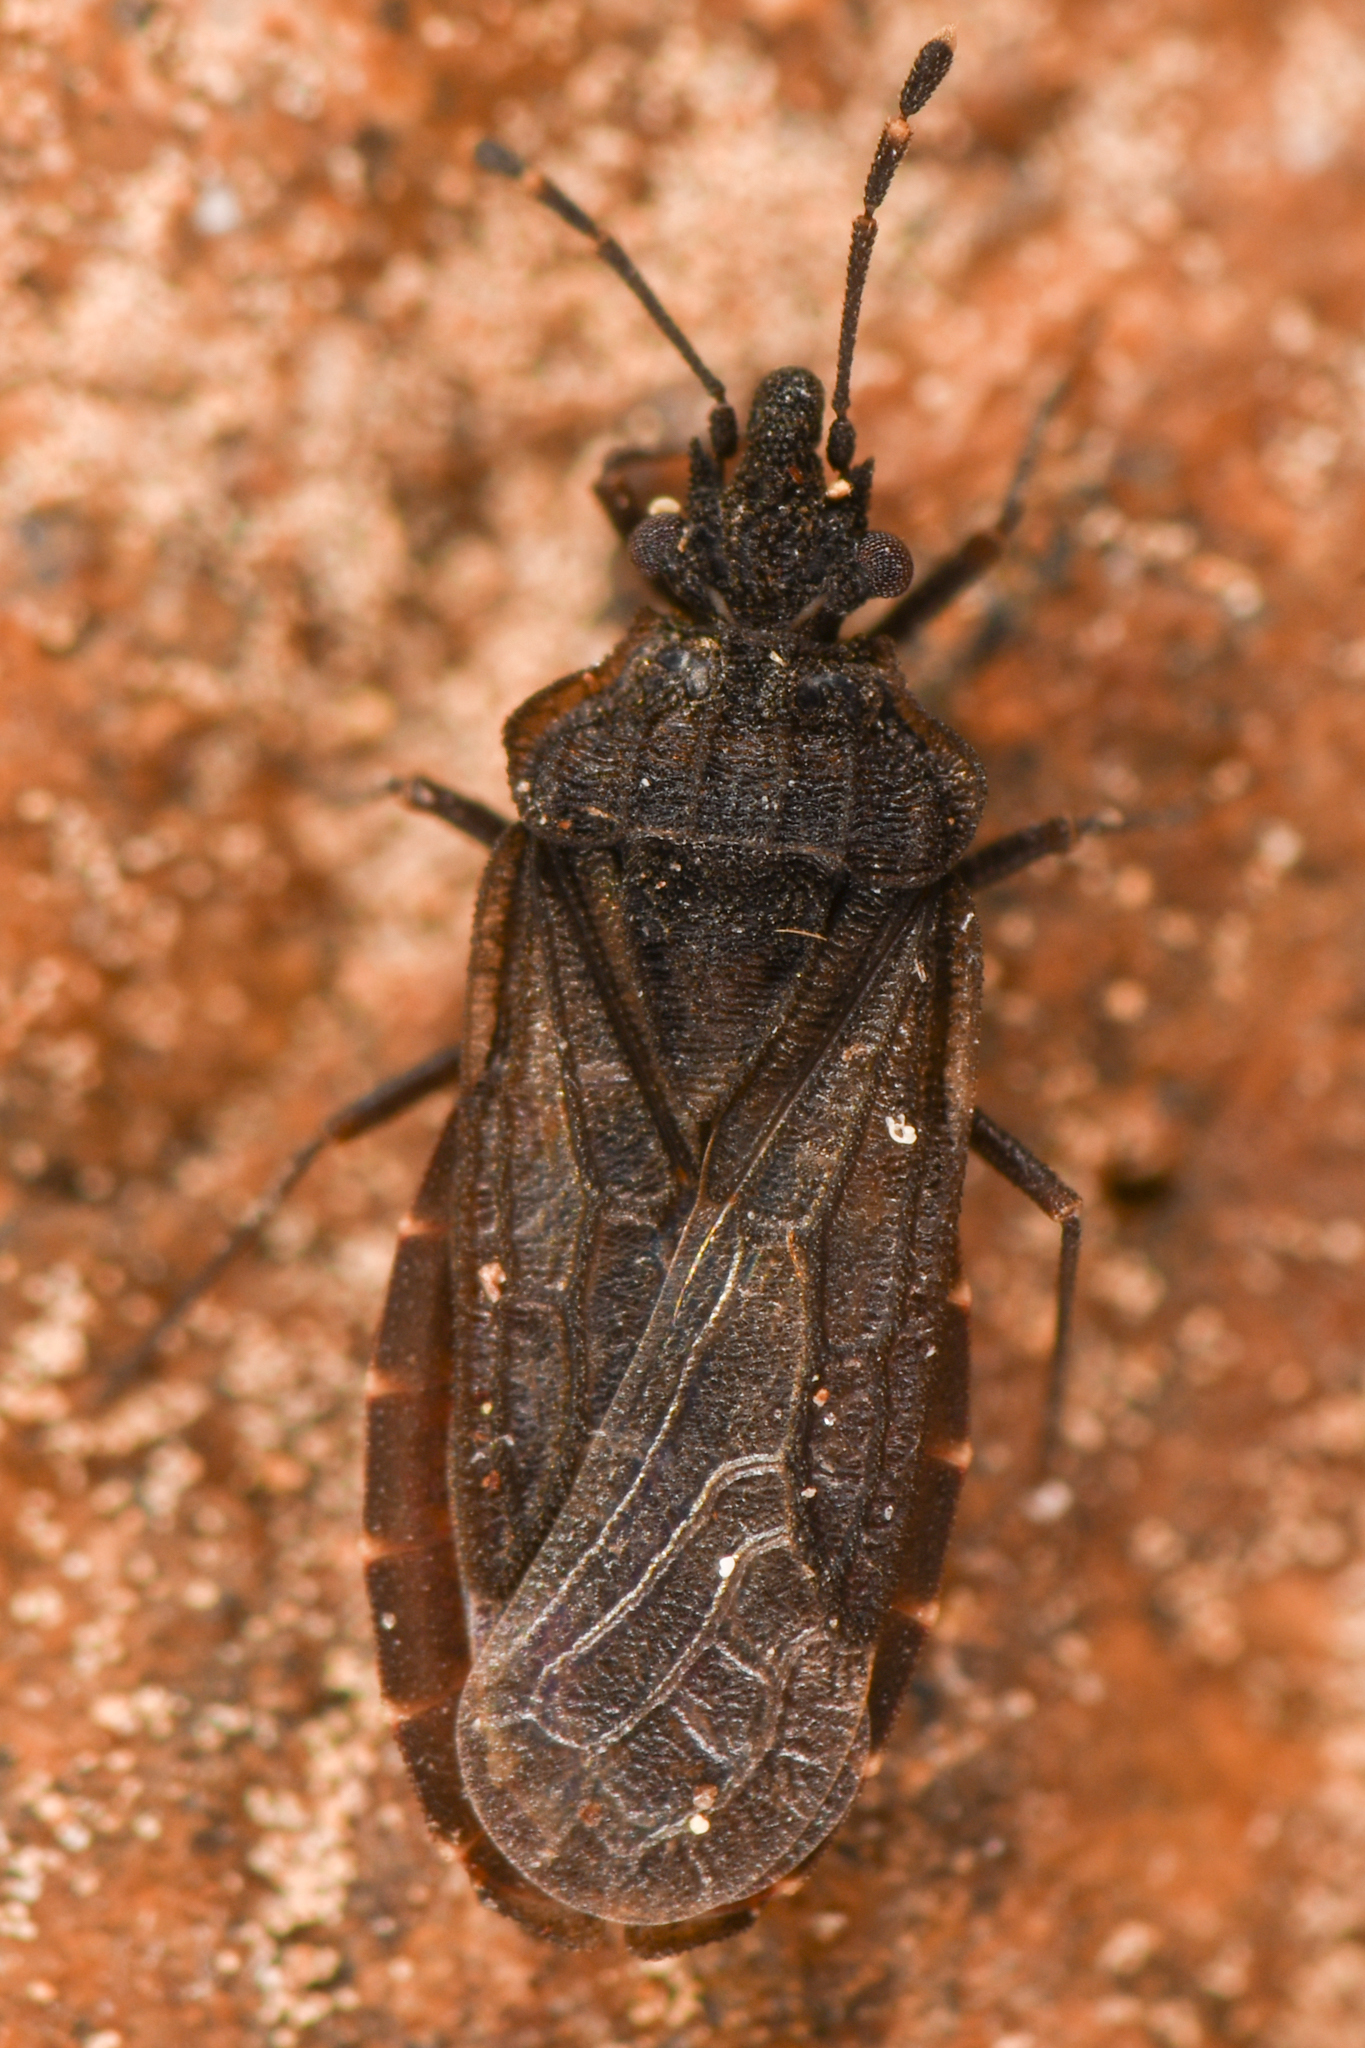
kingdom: Animalia
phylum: Arthropoda
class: Insecta
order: Hemiptera
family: Aradidae
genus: Aradus
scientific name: Aradus uniannulatus
